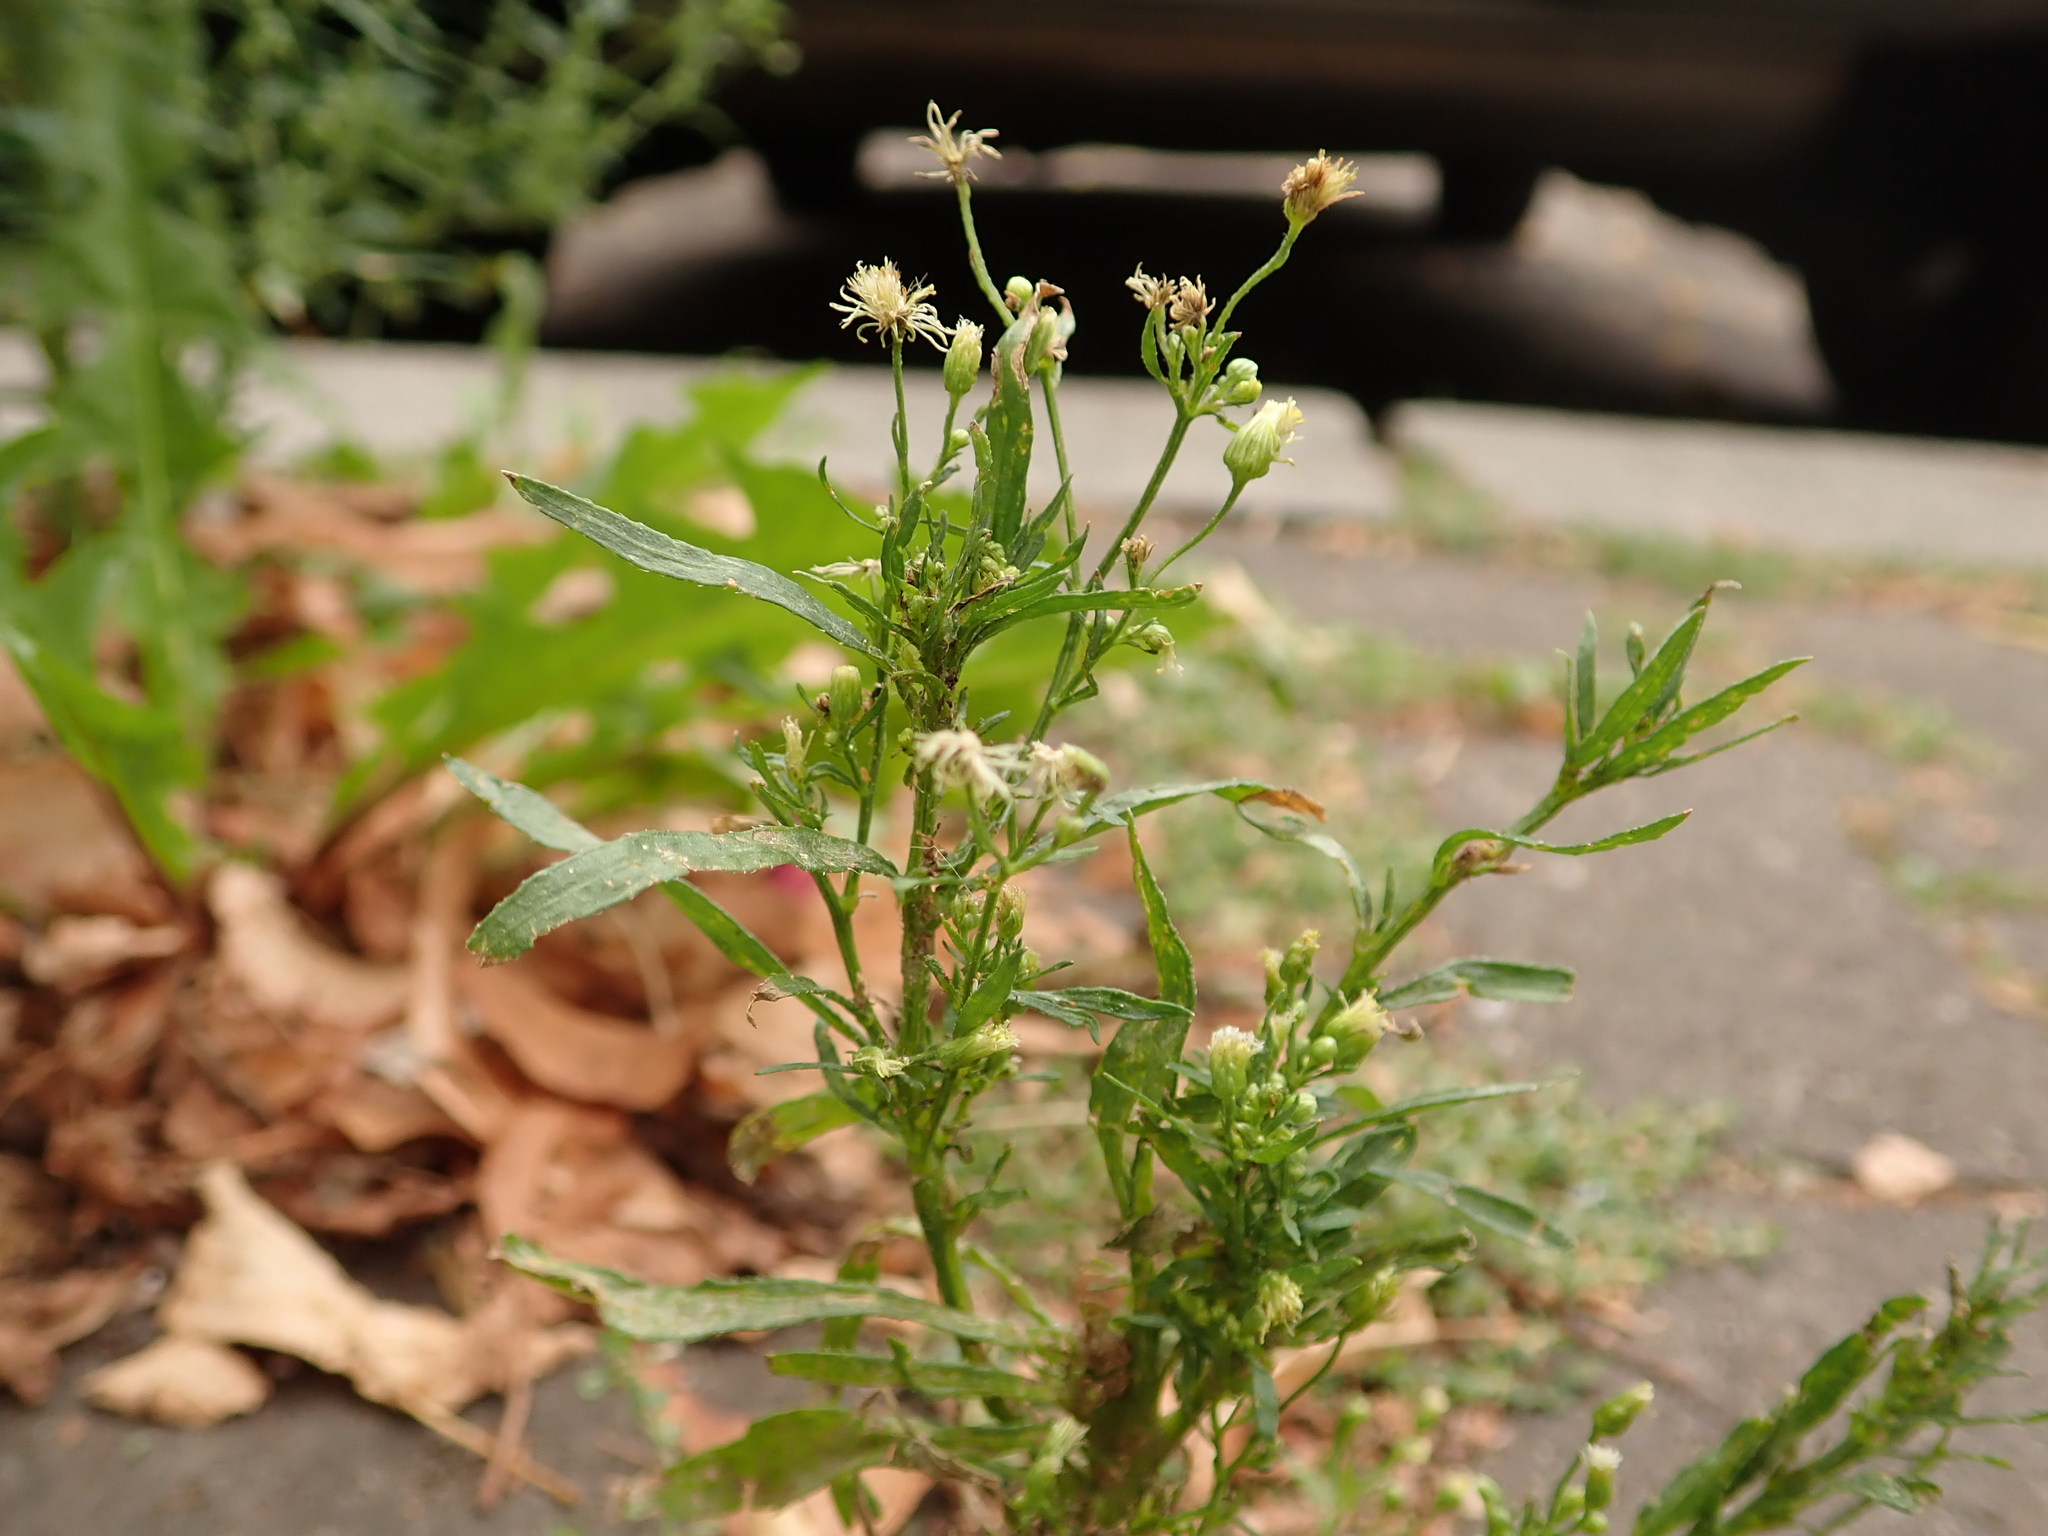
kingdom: Plantae
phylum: Tracheophyta
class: Magnoliopsida
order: Asterales
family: Asteraceae
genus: Erigeron
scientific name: Erigeron canadensis
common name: Canadian fleabane
